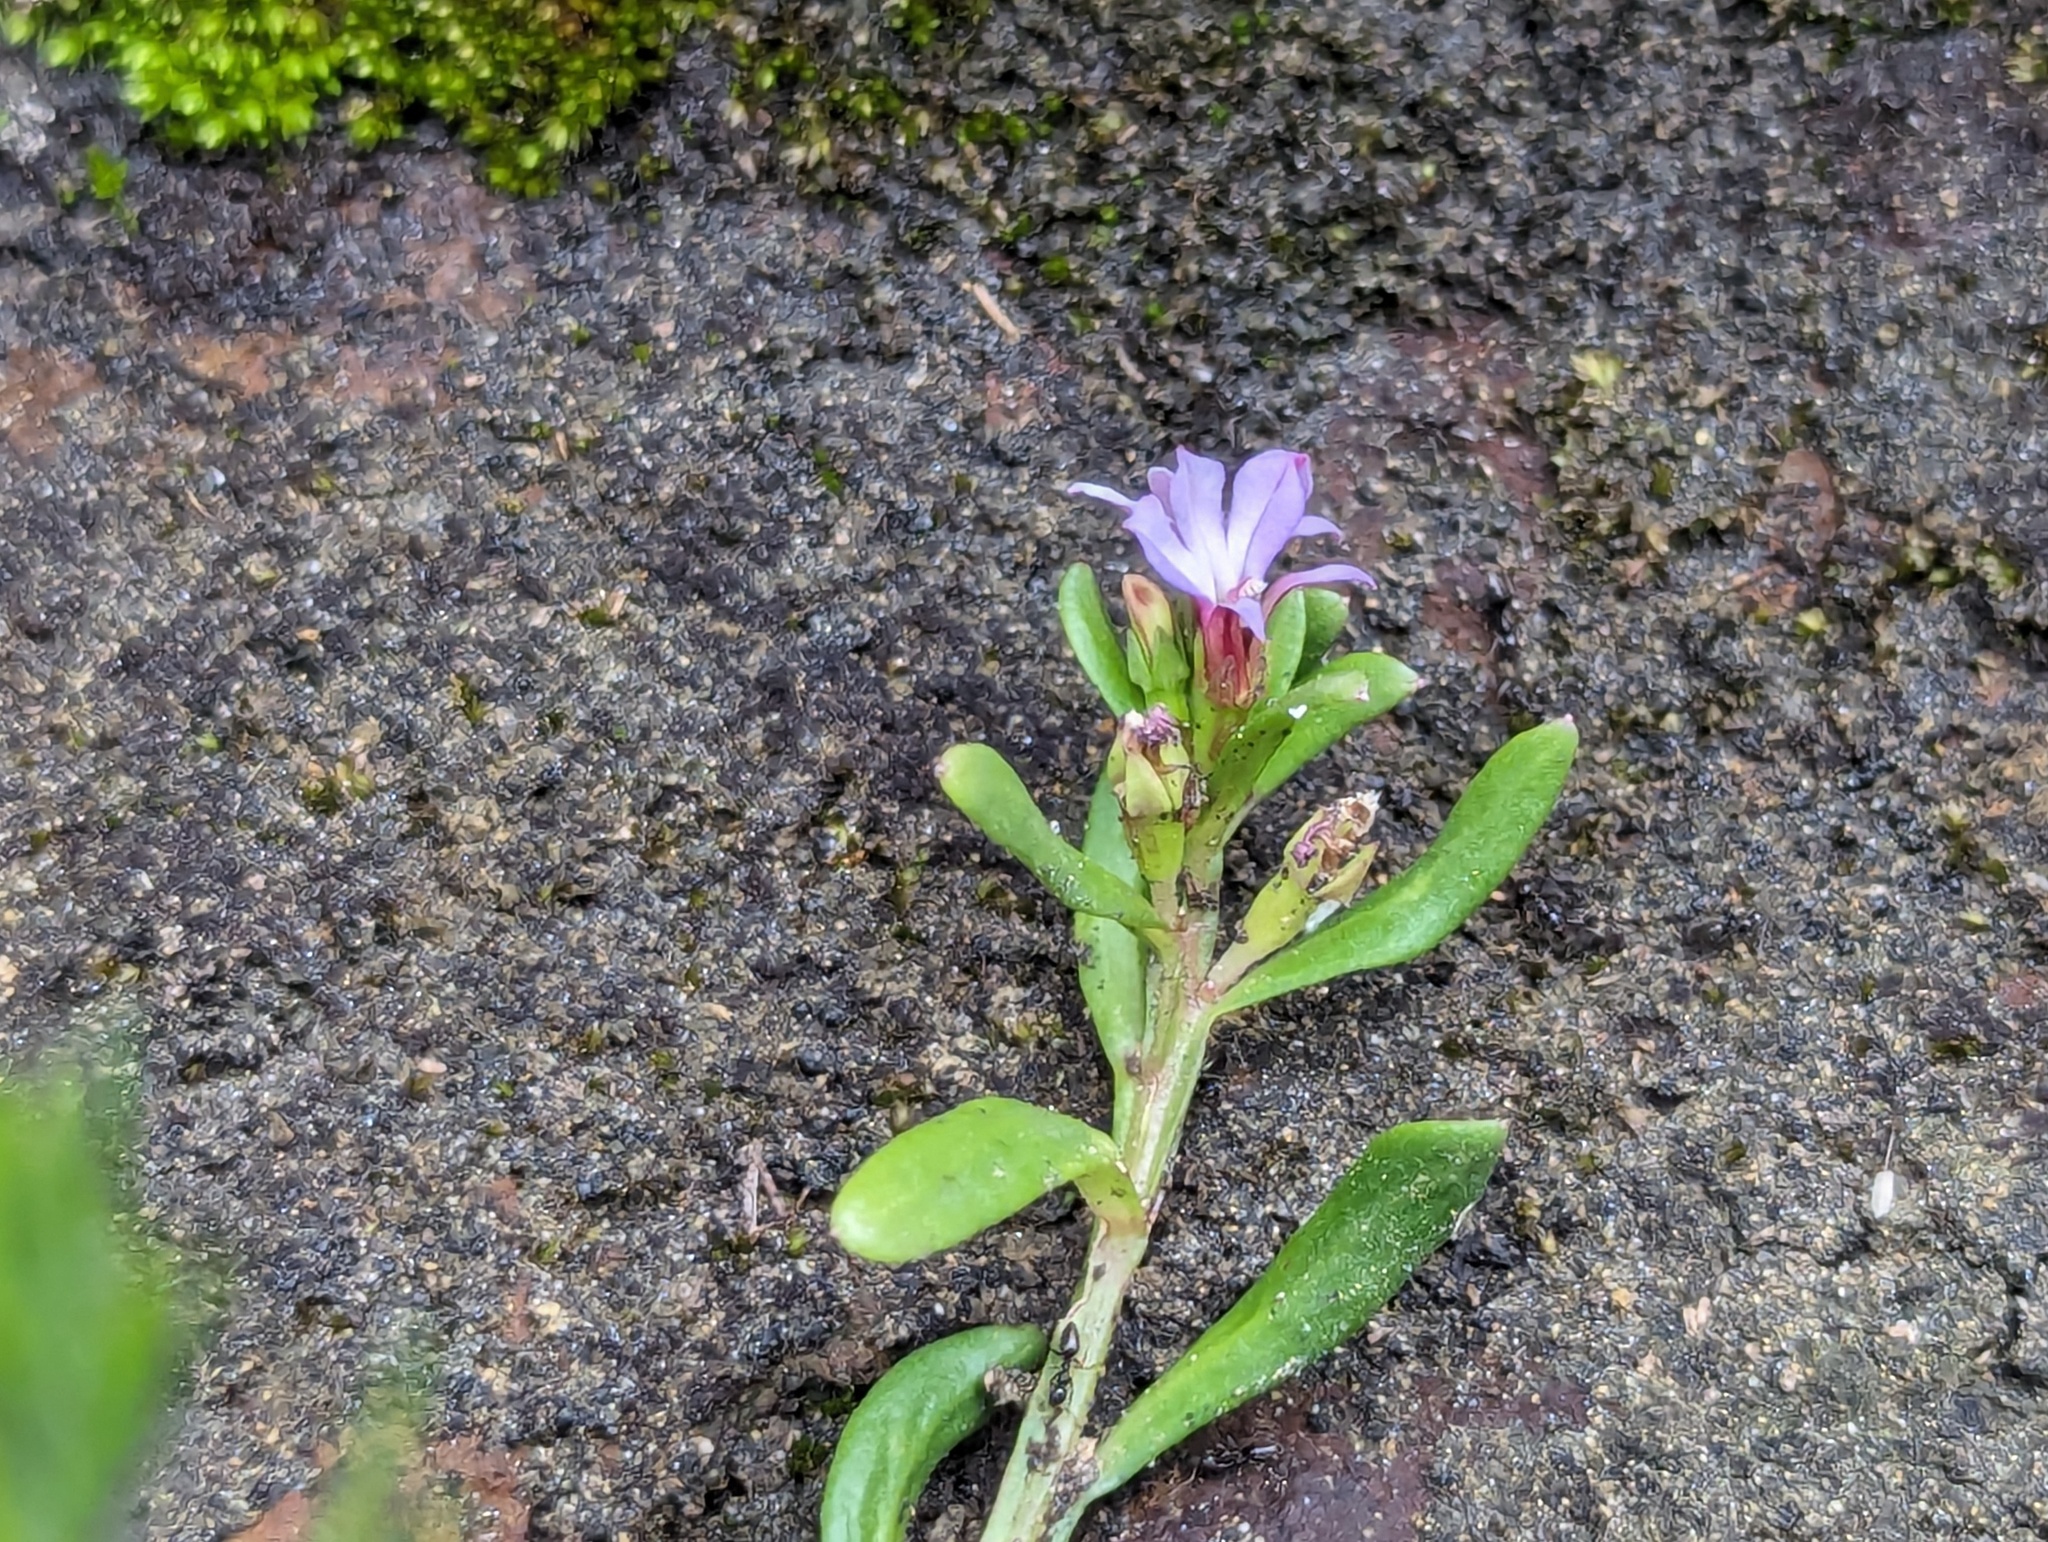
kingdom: Plantae
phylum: Tracheophyta
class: Magnoliopsida
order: Asterales
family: Campanulaceae
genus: Lobelia
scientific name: Lobelia anceps
